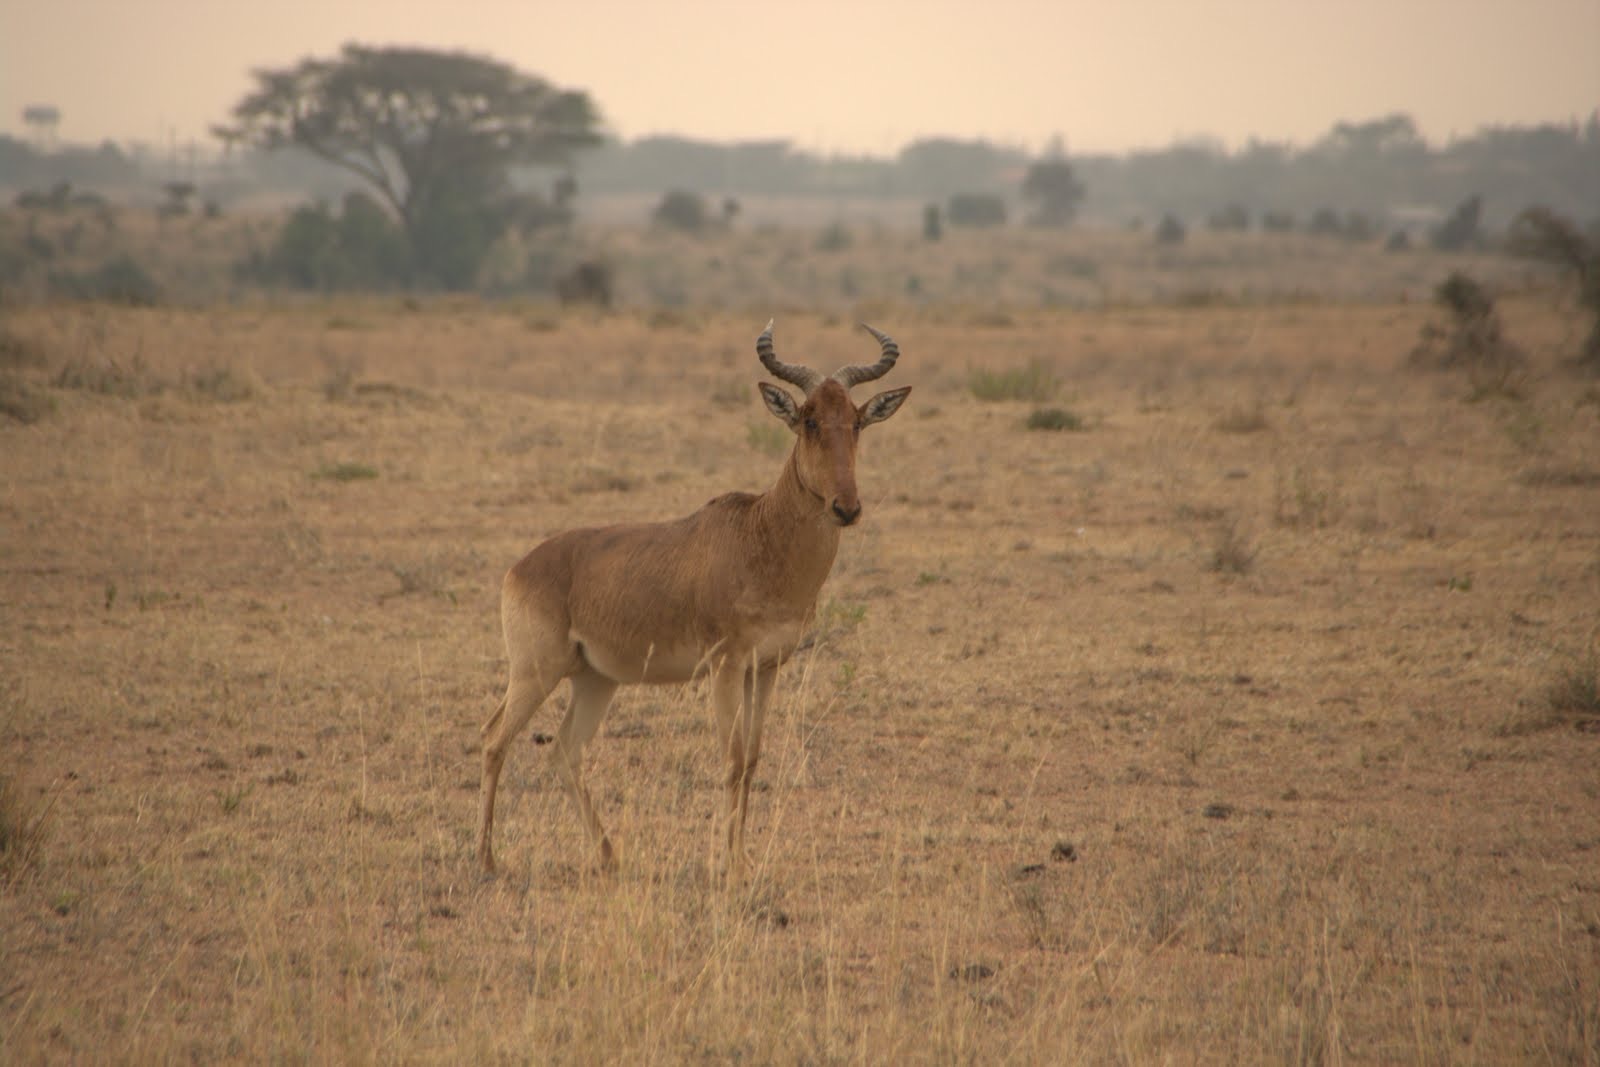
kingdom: Animalia
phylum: Chordata
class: Mammalia
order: Artiodactyla
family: Bovidae
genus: Alcelaphus
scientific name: Alcelaphus buselaphus
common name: Hartebeest
